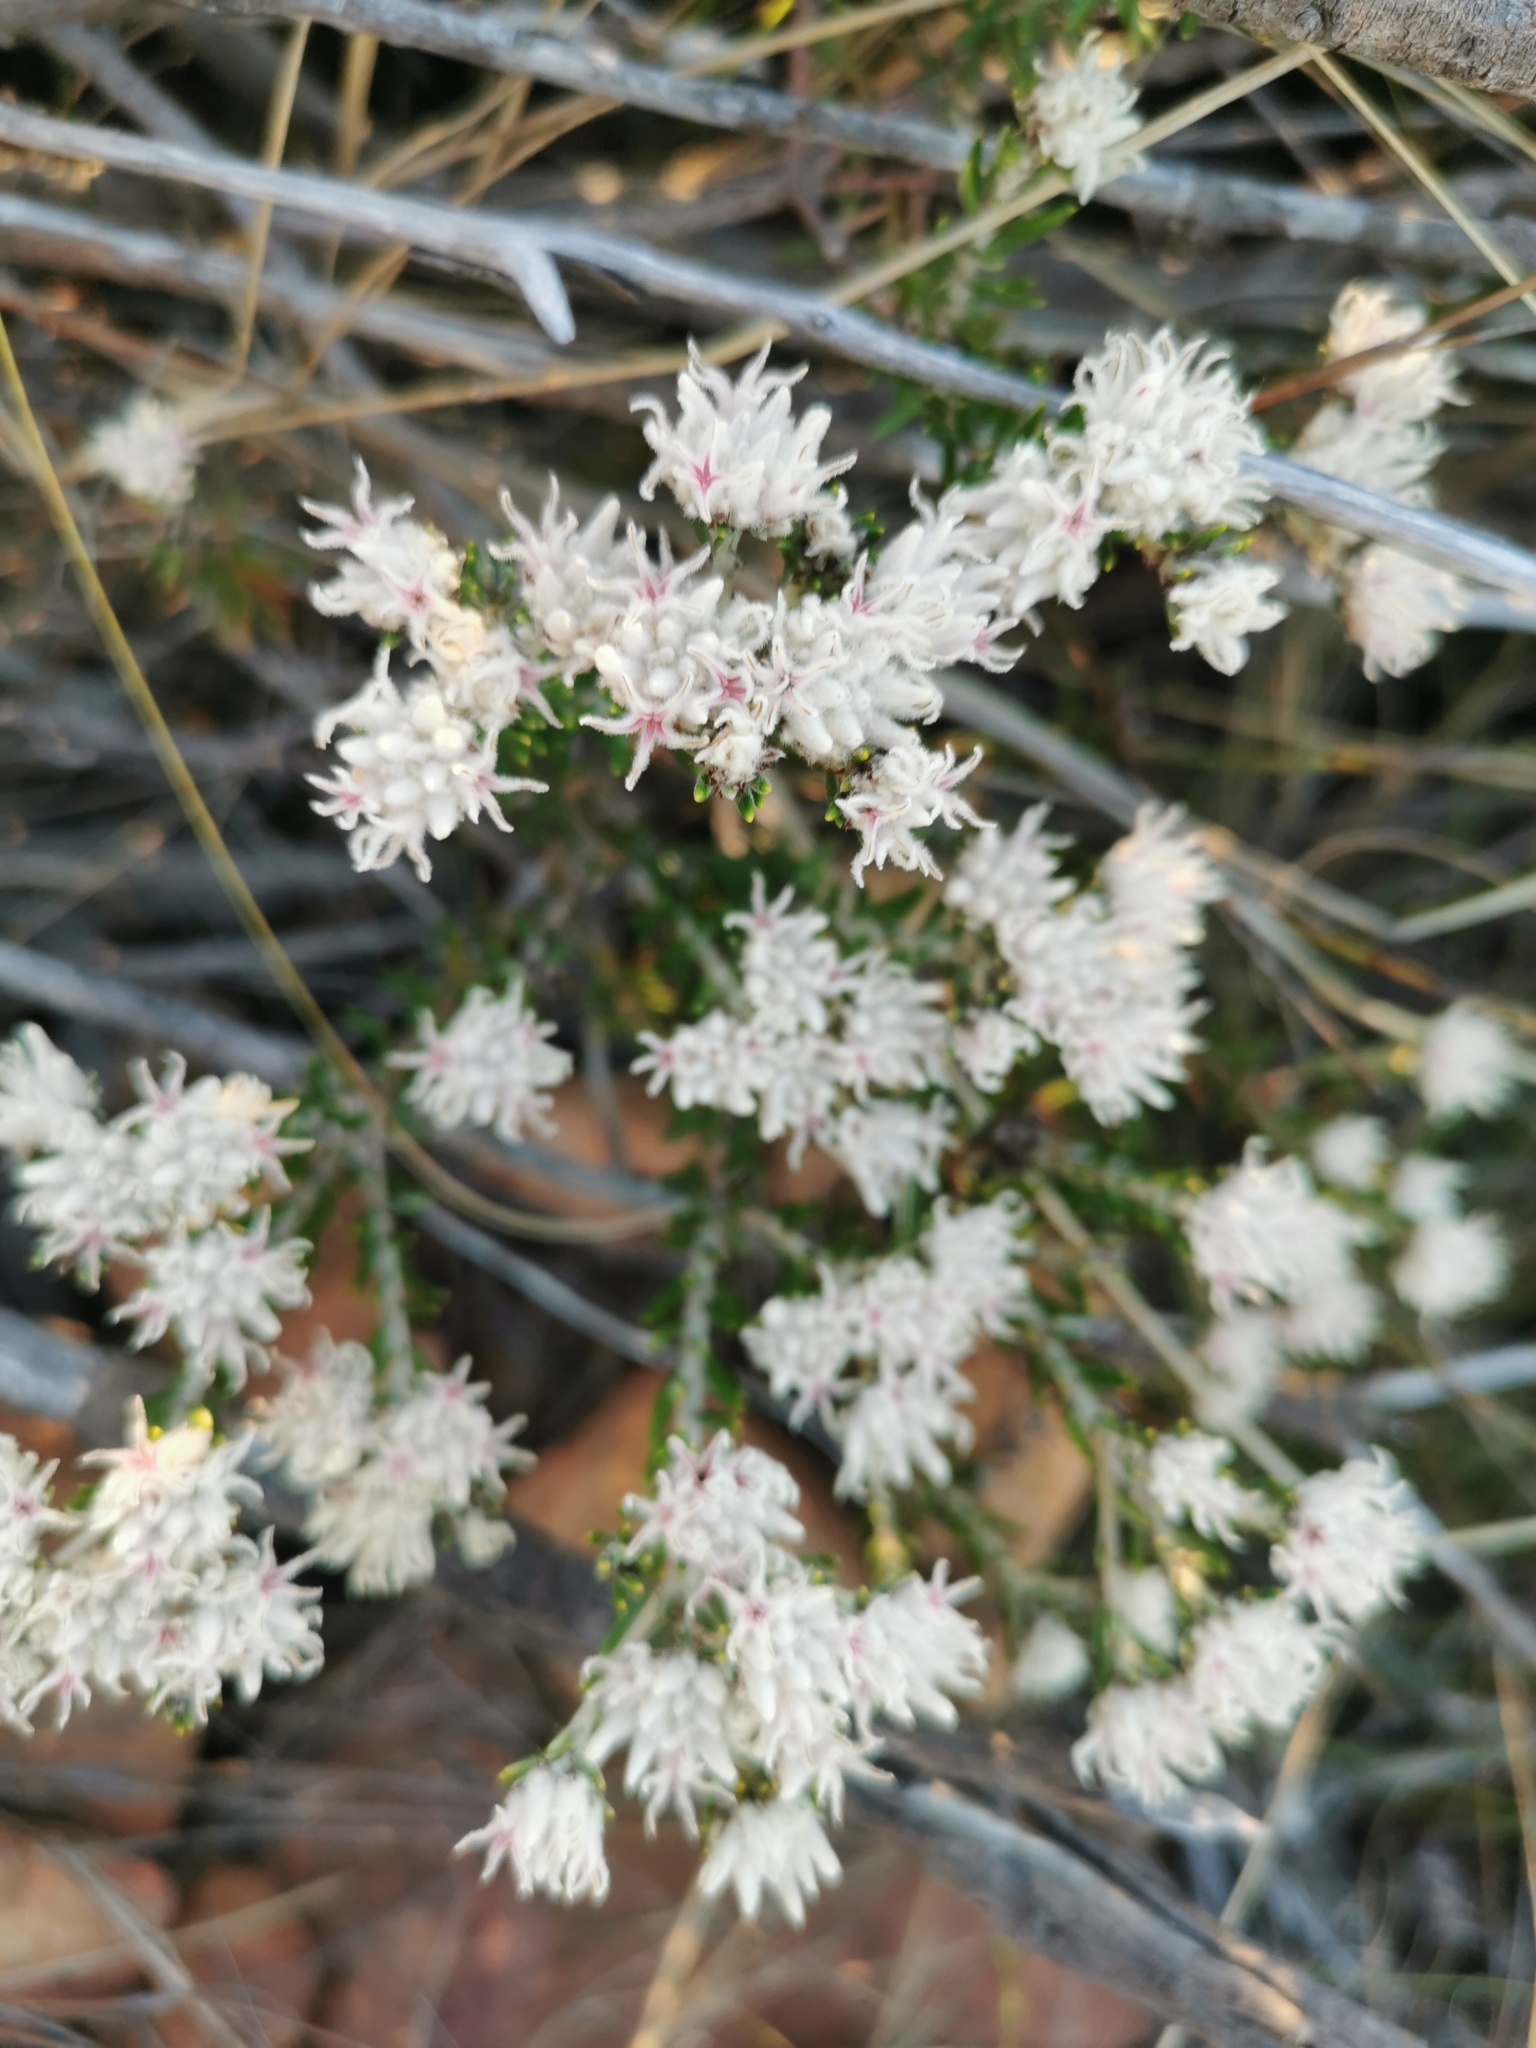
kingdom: Plantae
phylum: Tracheophyta
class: Magnoliopsida
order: Rosales
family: Rhamnaceae
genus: Trichocephalus
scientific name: Trichocephalus stipularis
